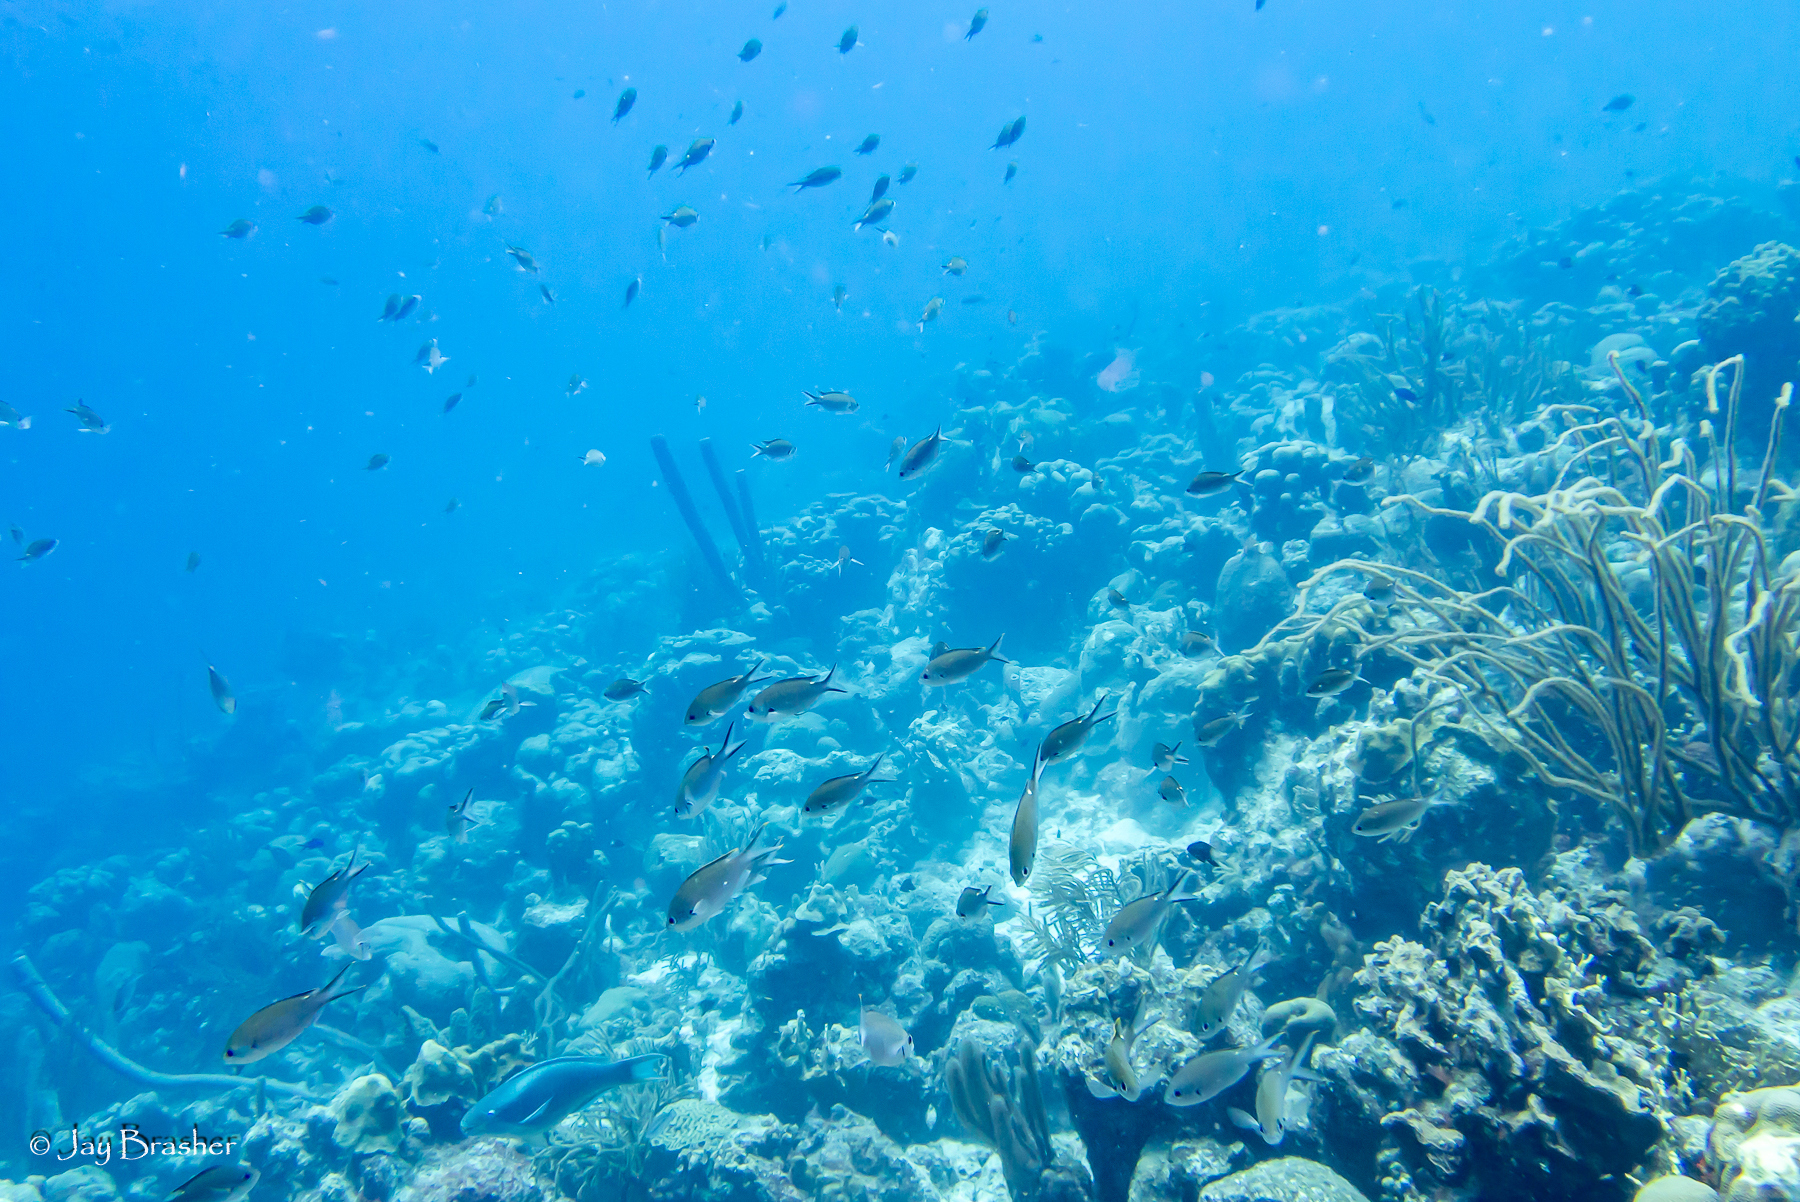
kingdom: Animalia
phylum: Chordata
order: Perciformes
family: Pomacentridae
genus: Chromis
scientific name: Chromis multilineata
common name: Brown chromis
